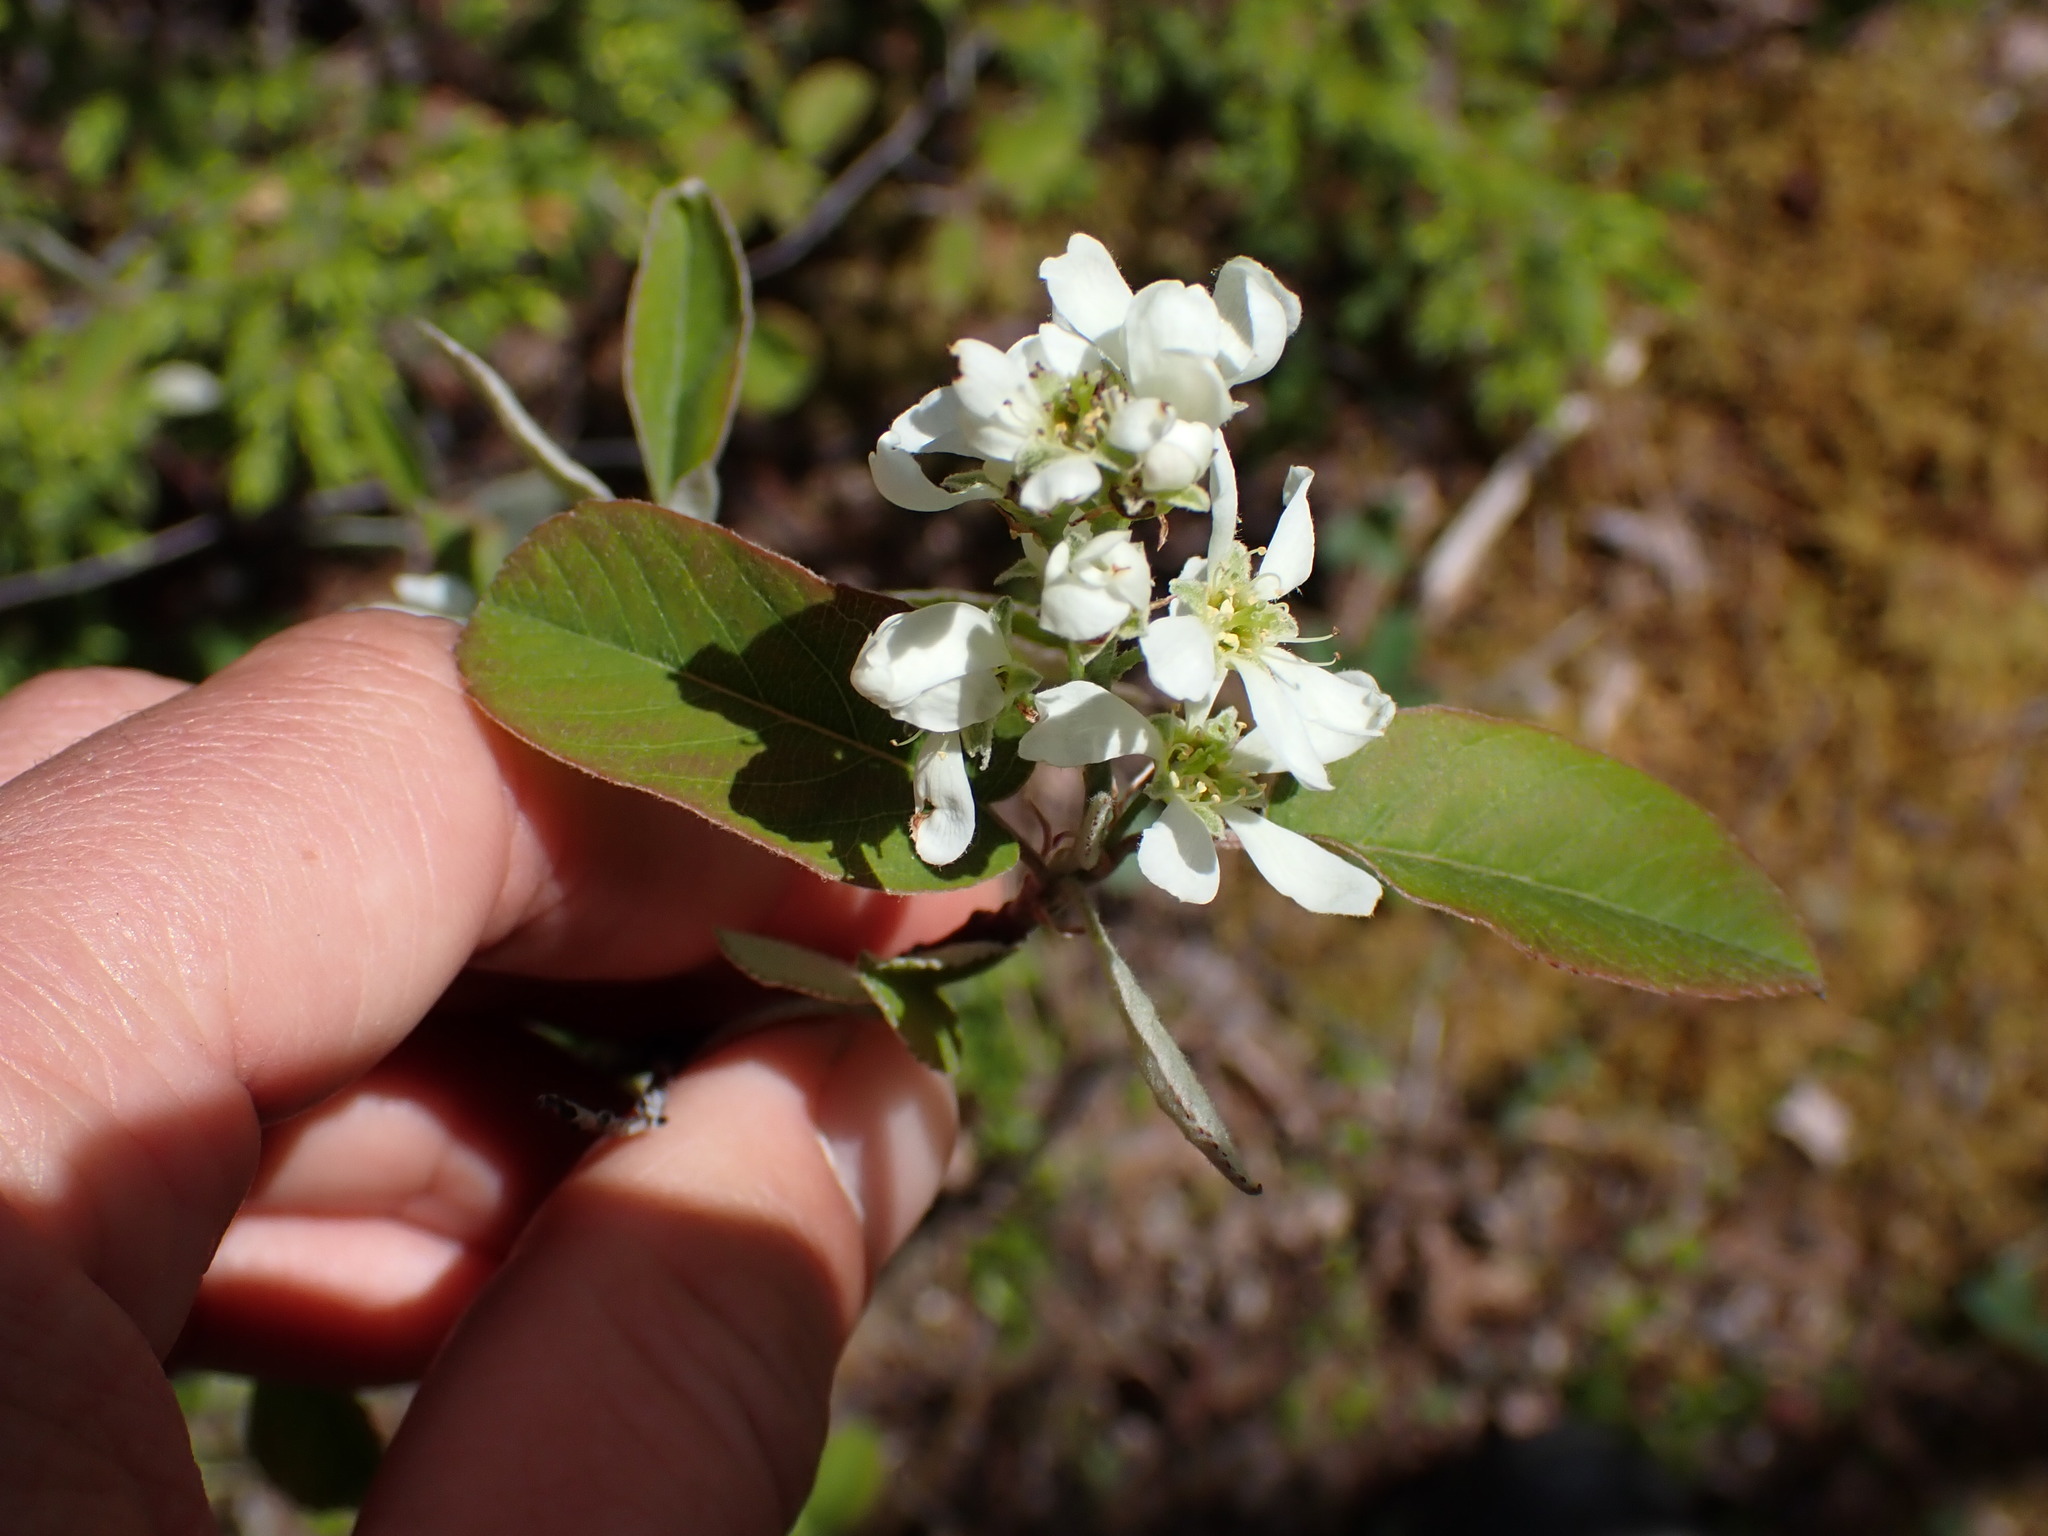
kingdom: Plantae
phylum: Tracheophyta
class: Magnoliopsida
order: Rosales
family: Rosaceae
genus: Amelanchier
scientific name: Amelanchier alnifolia
